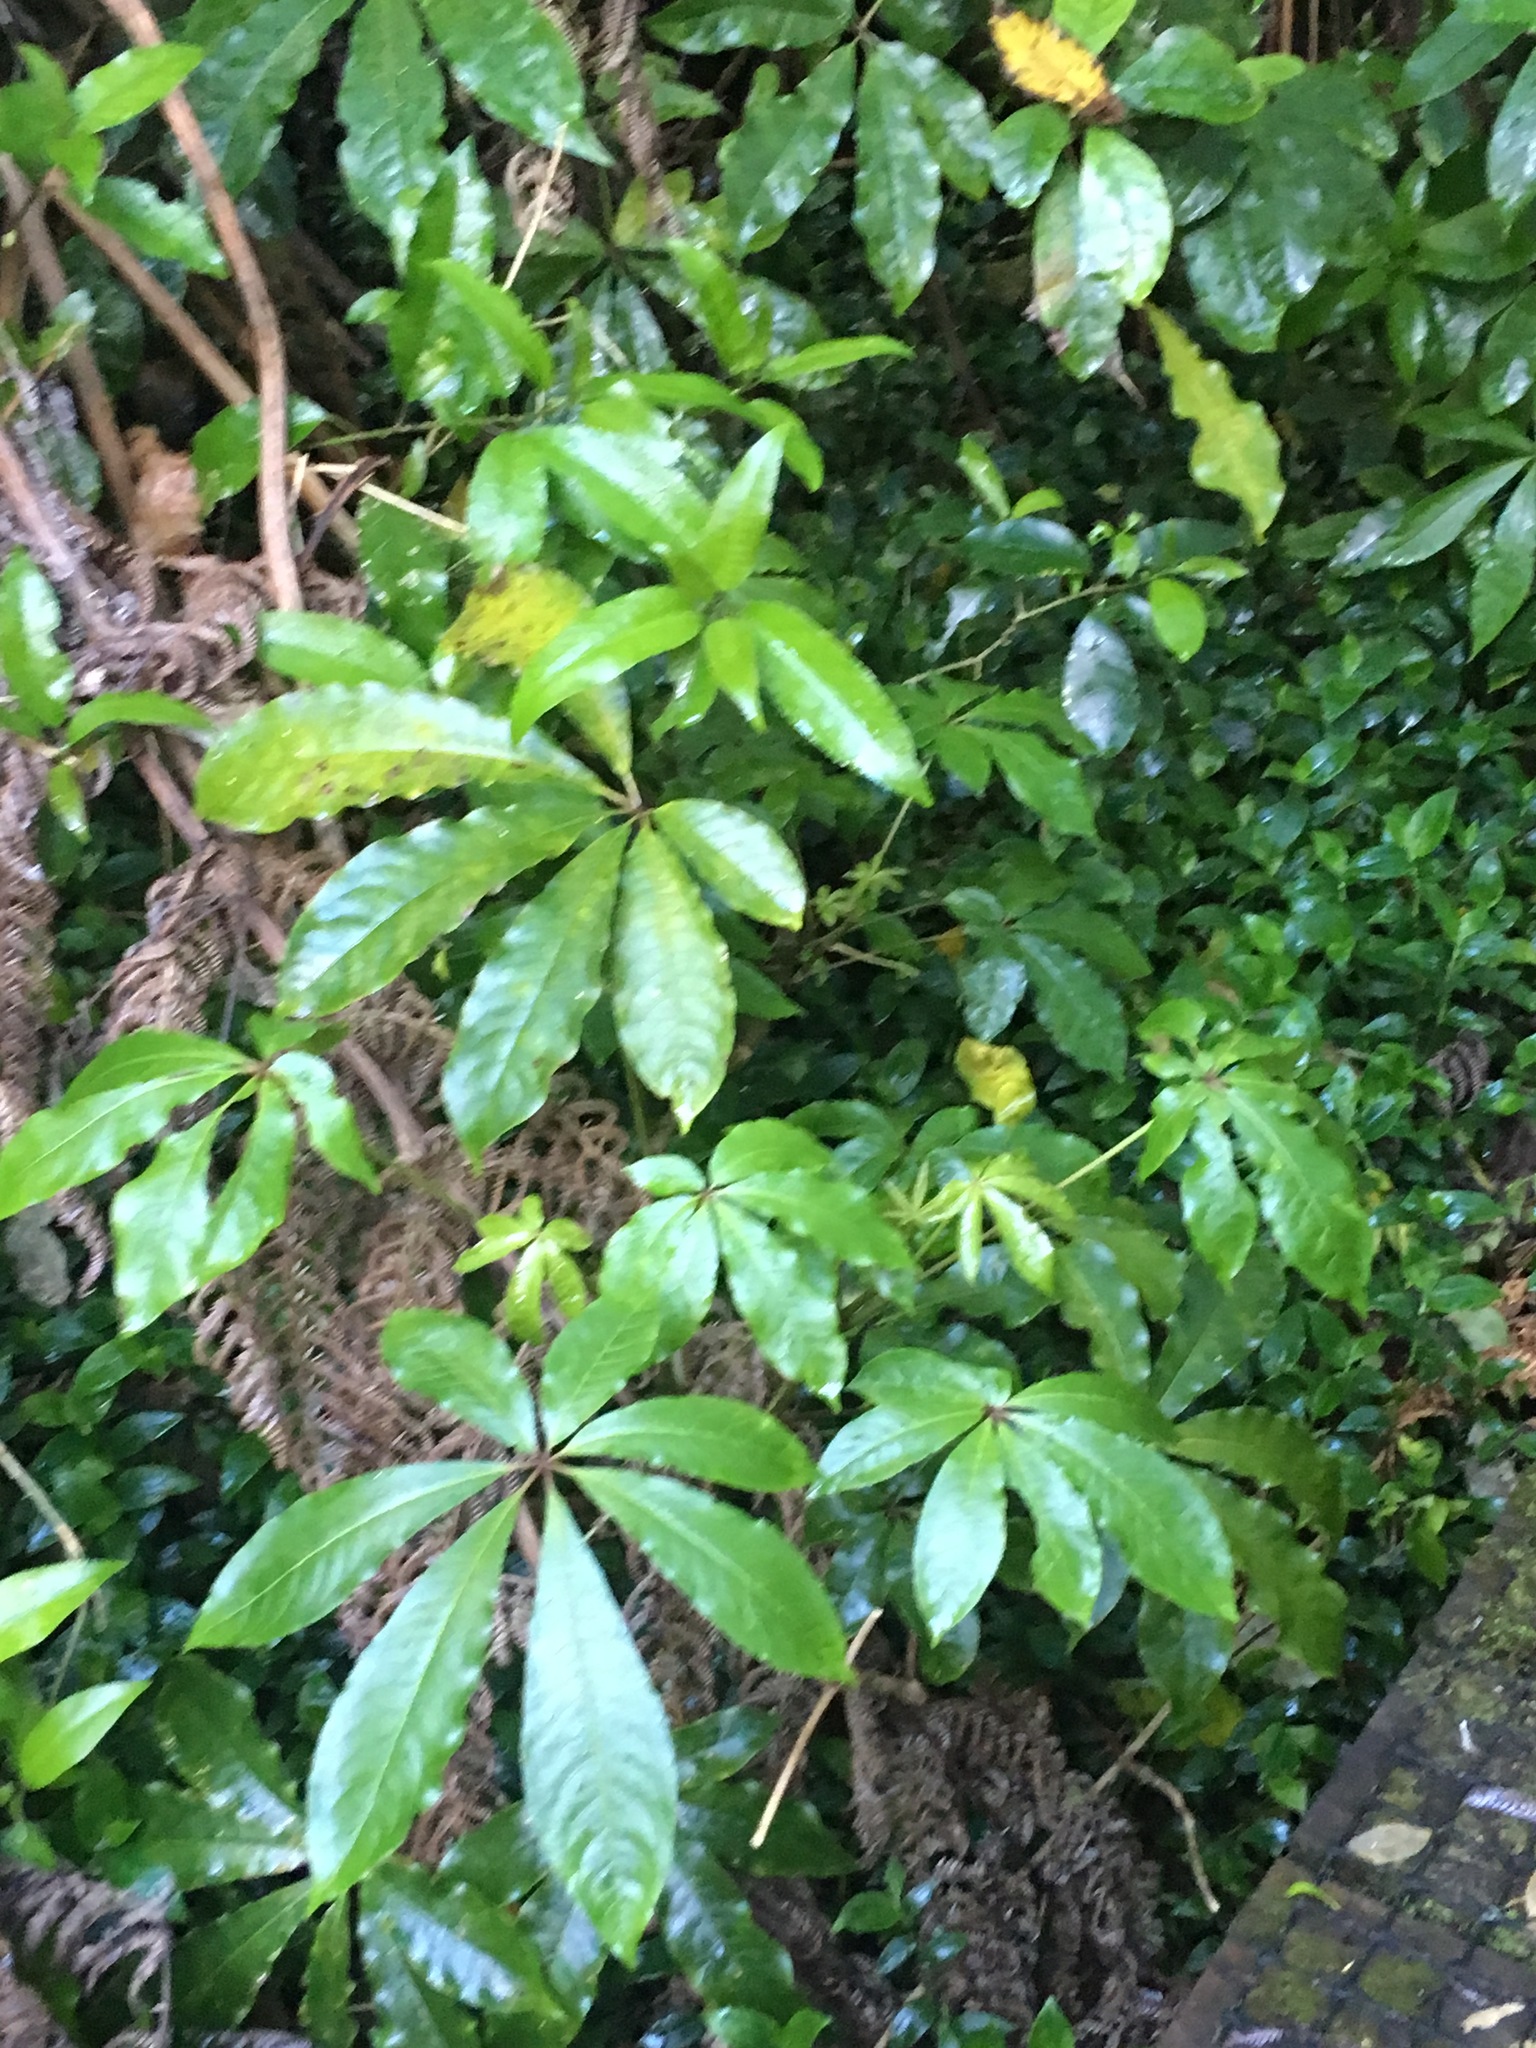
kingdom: Plantae
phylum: Tracheophyta
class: Magnoliopsida
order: Apiales
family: Araliaceae
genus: Schefflera
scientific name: Schefflera digitata
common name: Pate
